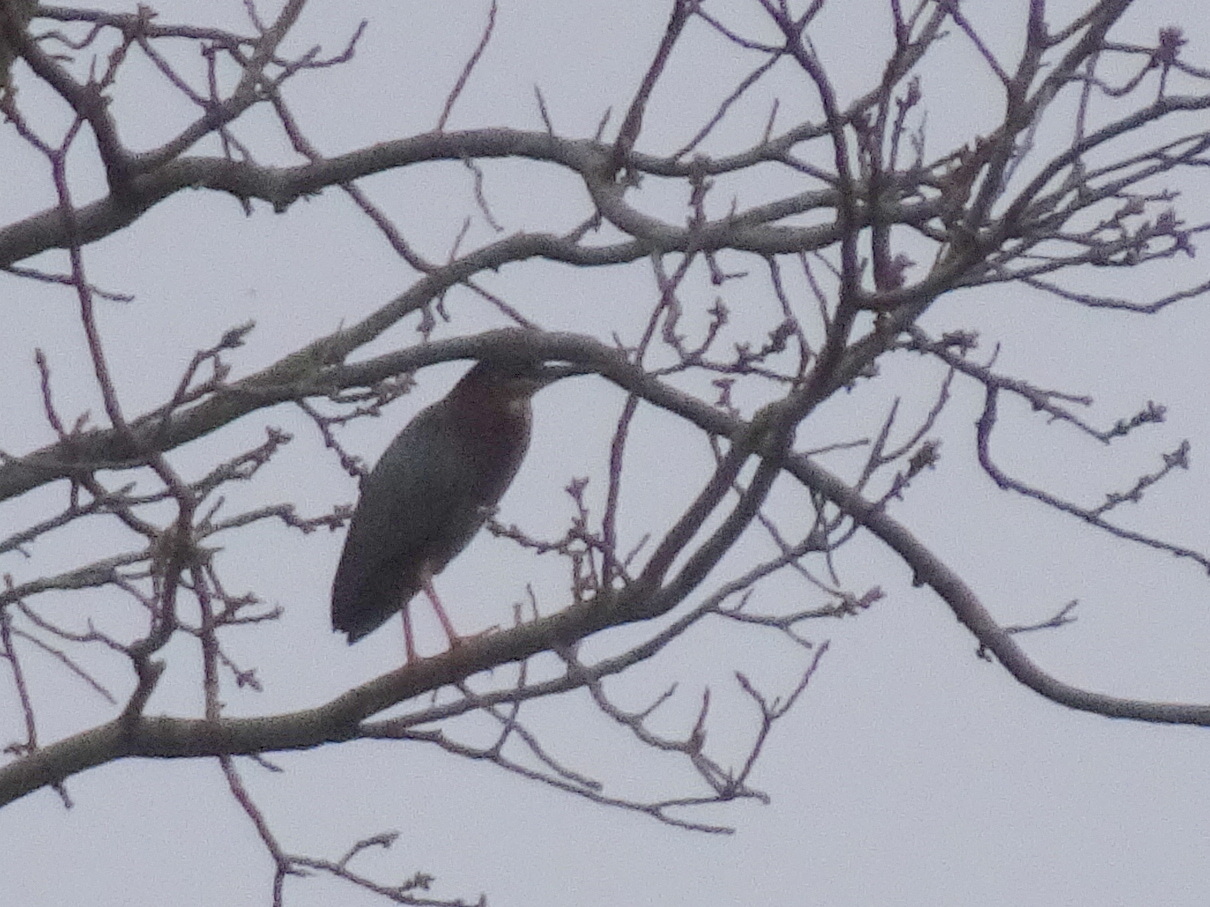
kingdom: Animalia
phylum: Chordata
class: Aves
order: Pelecaniformes
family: Ardeidae
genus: Butorides
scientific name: Butorides virescens
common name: Green heron
